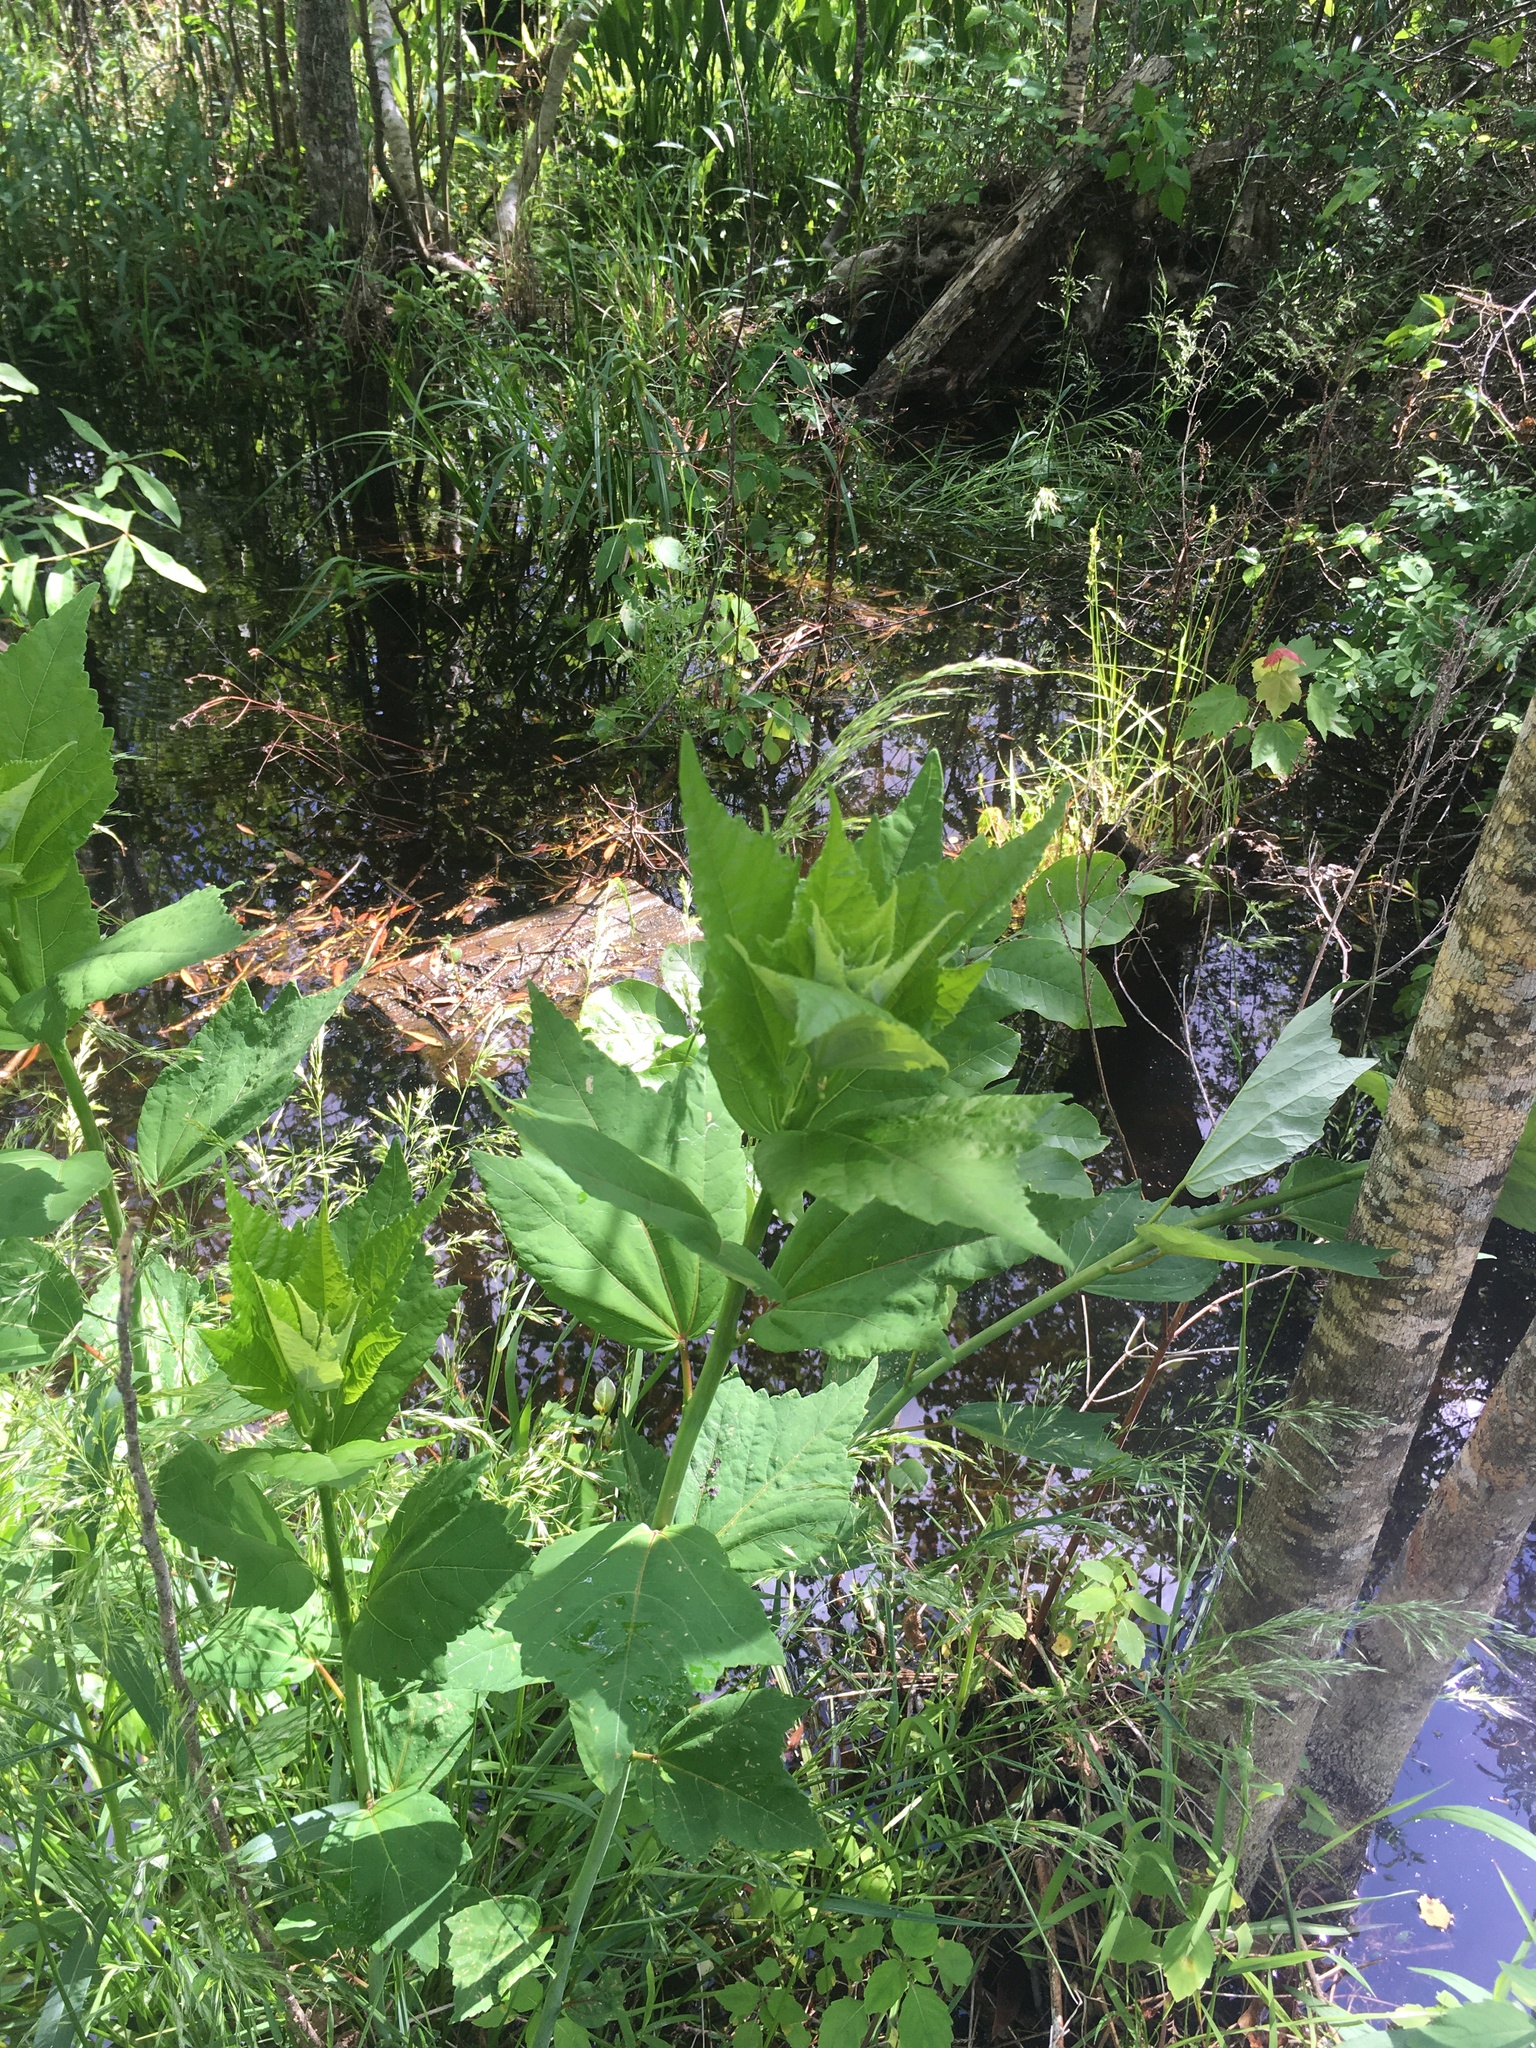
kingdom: Plantae
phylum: Tracheophyta
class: Magnoliopsida
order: Malvales
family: Malvaceae
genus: Hibiscus
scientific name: Hibiscus moscheutos
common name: Common rose-mallow
